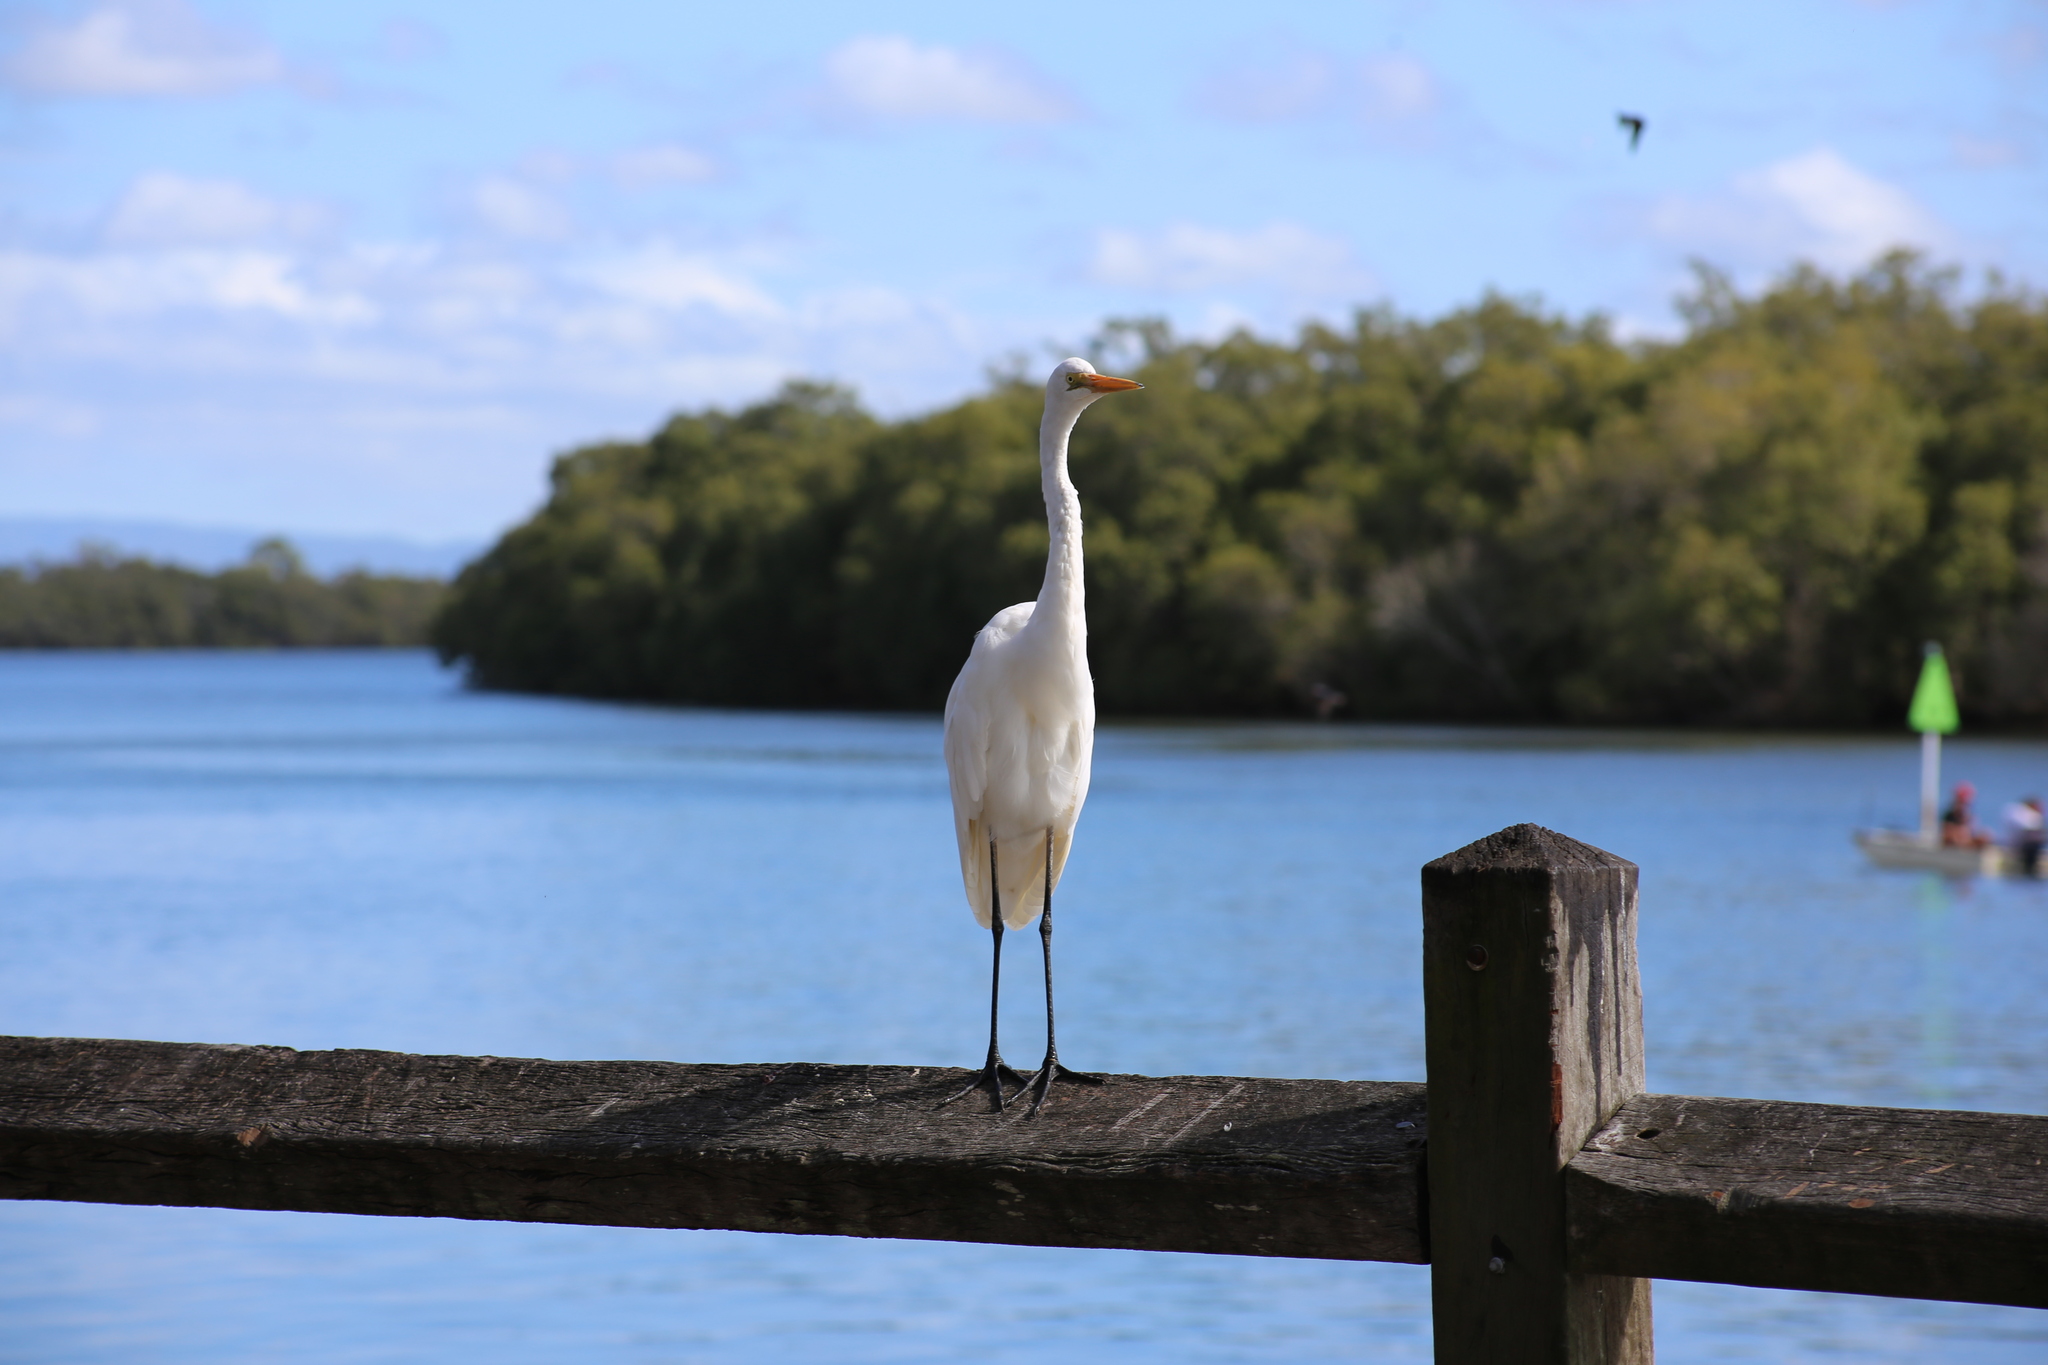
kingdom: Animalia
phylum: Chordata
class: Aves
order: Pelecaniformes
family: Ardeidae
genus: Ardea
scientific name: Ardea alba
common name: Great egret
